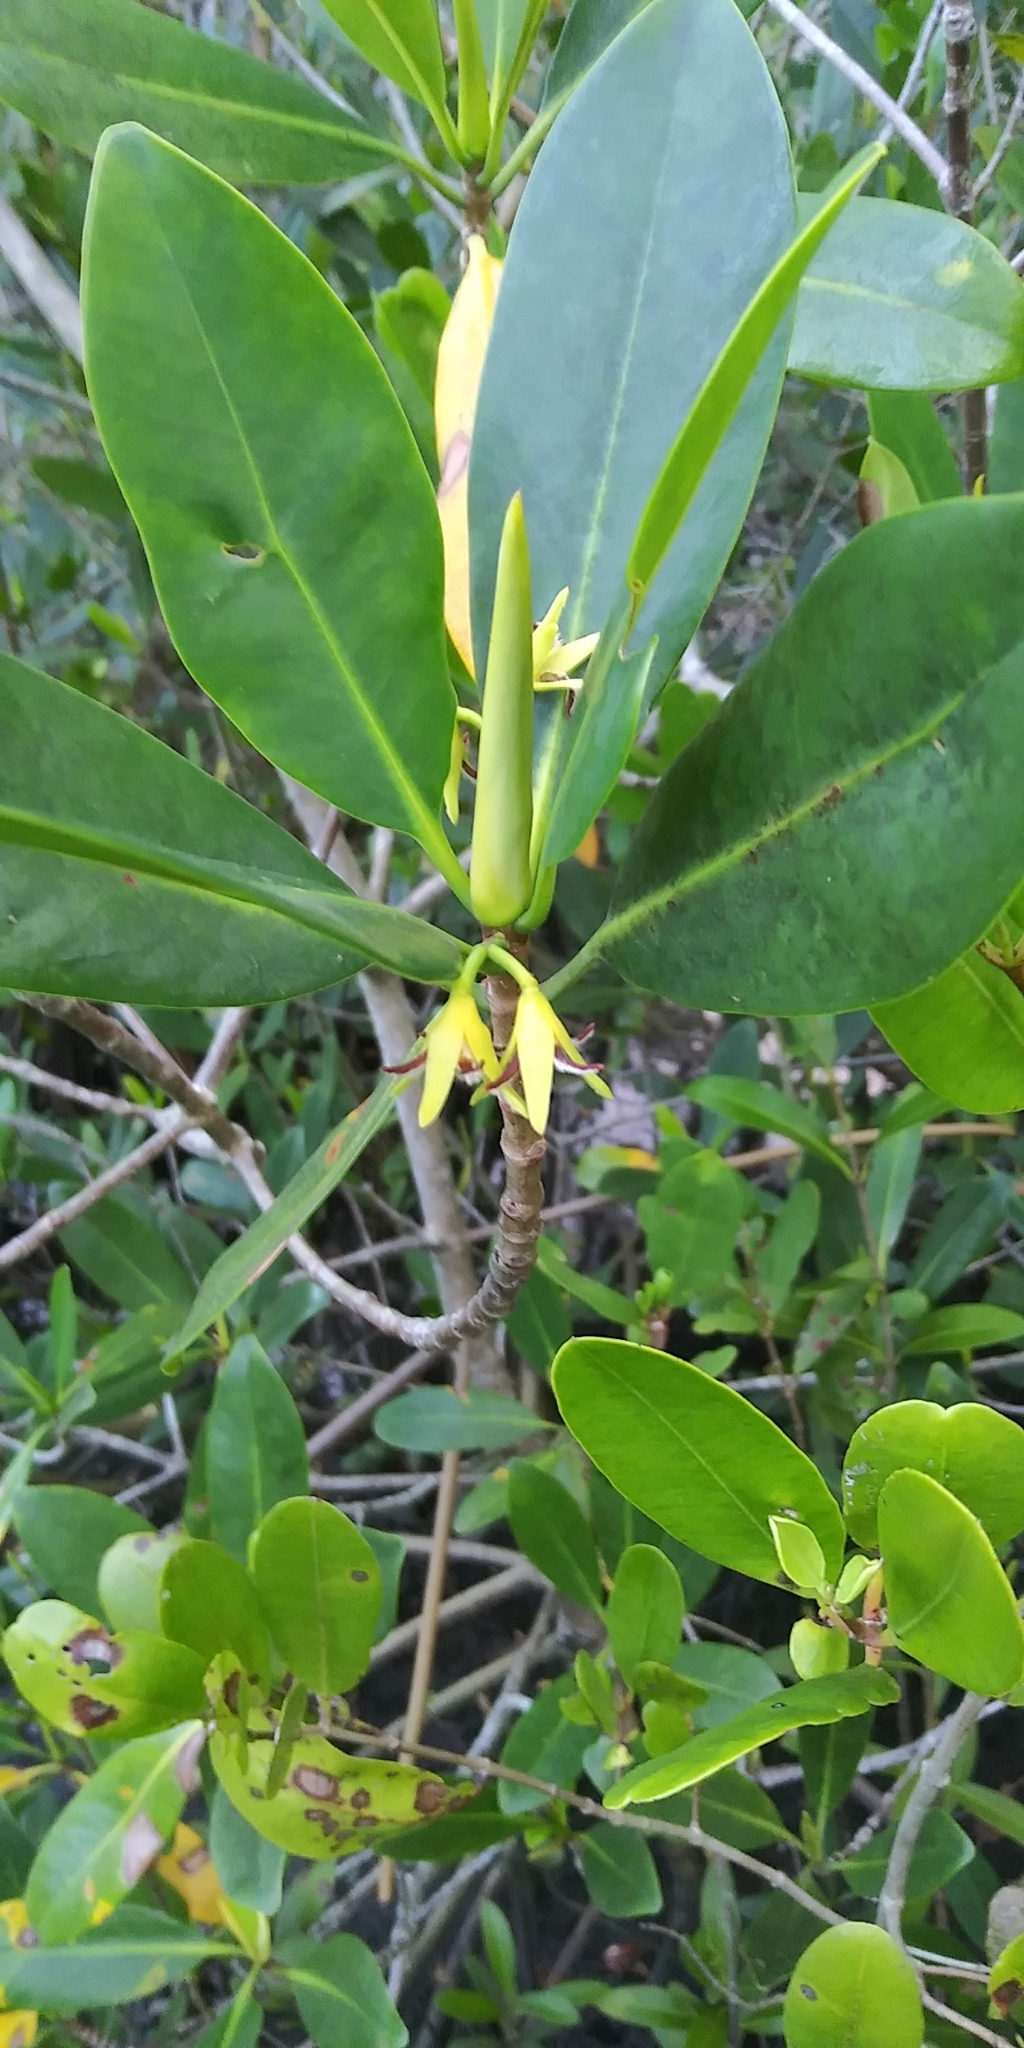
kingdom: Plantae
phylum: Tracheophyta
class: Magnoliopsida
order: Malpighiales
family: Rhizophoraceae
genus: Rhizophora
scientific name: Rhizophora mangle
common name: Red mangrove
